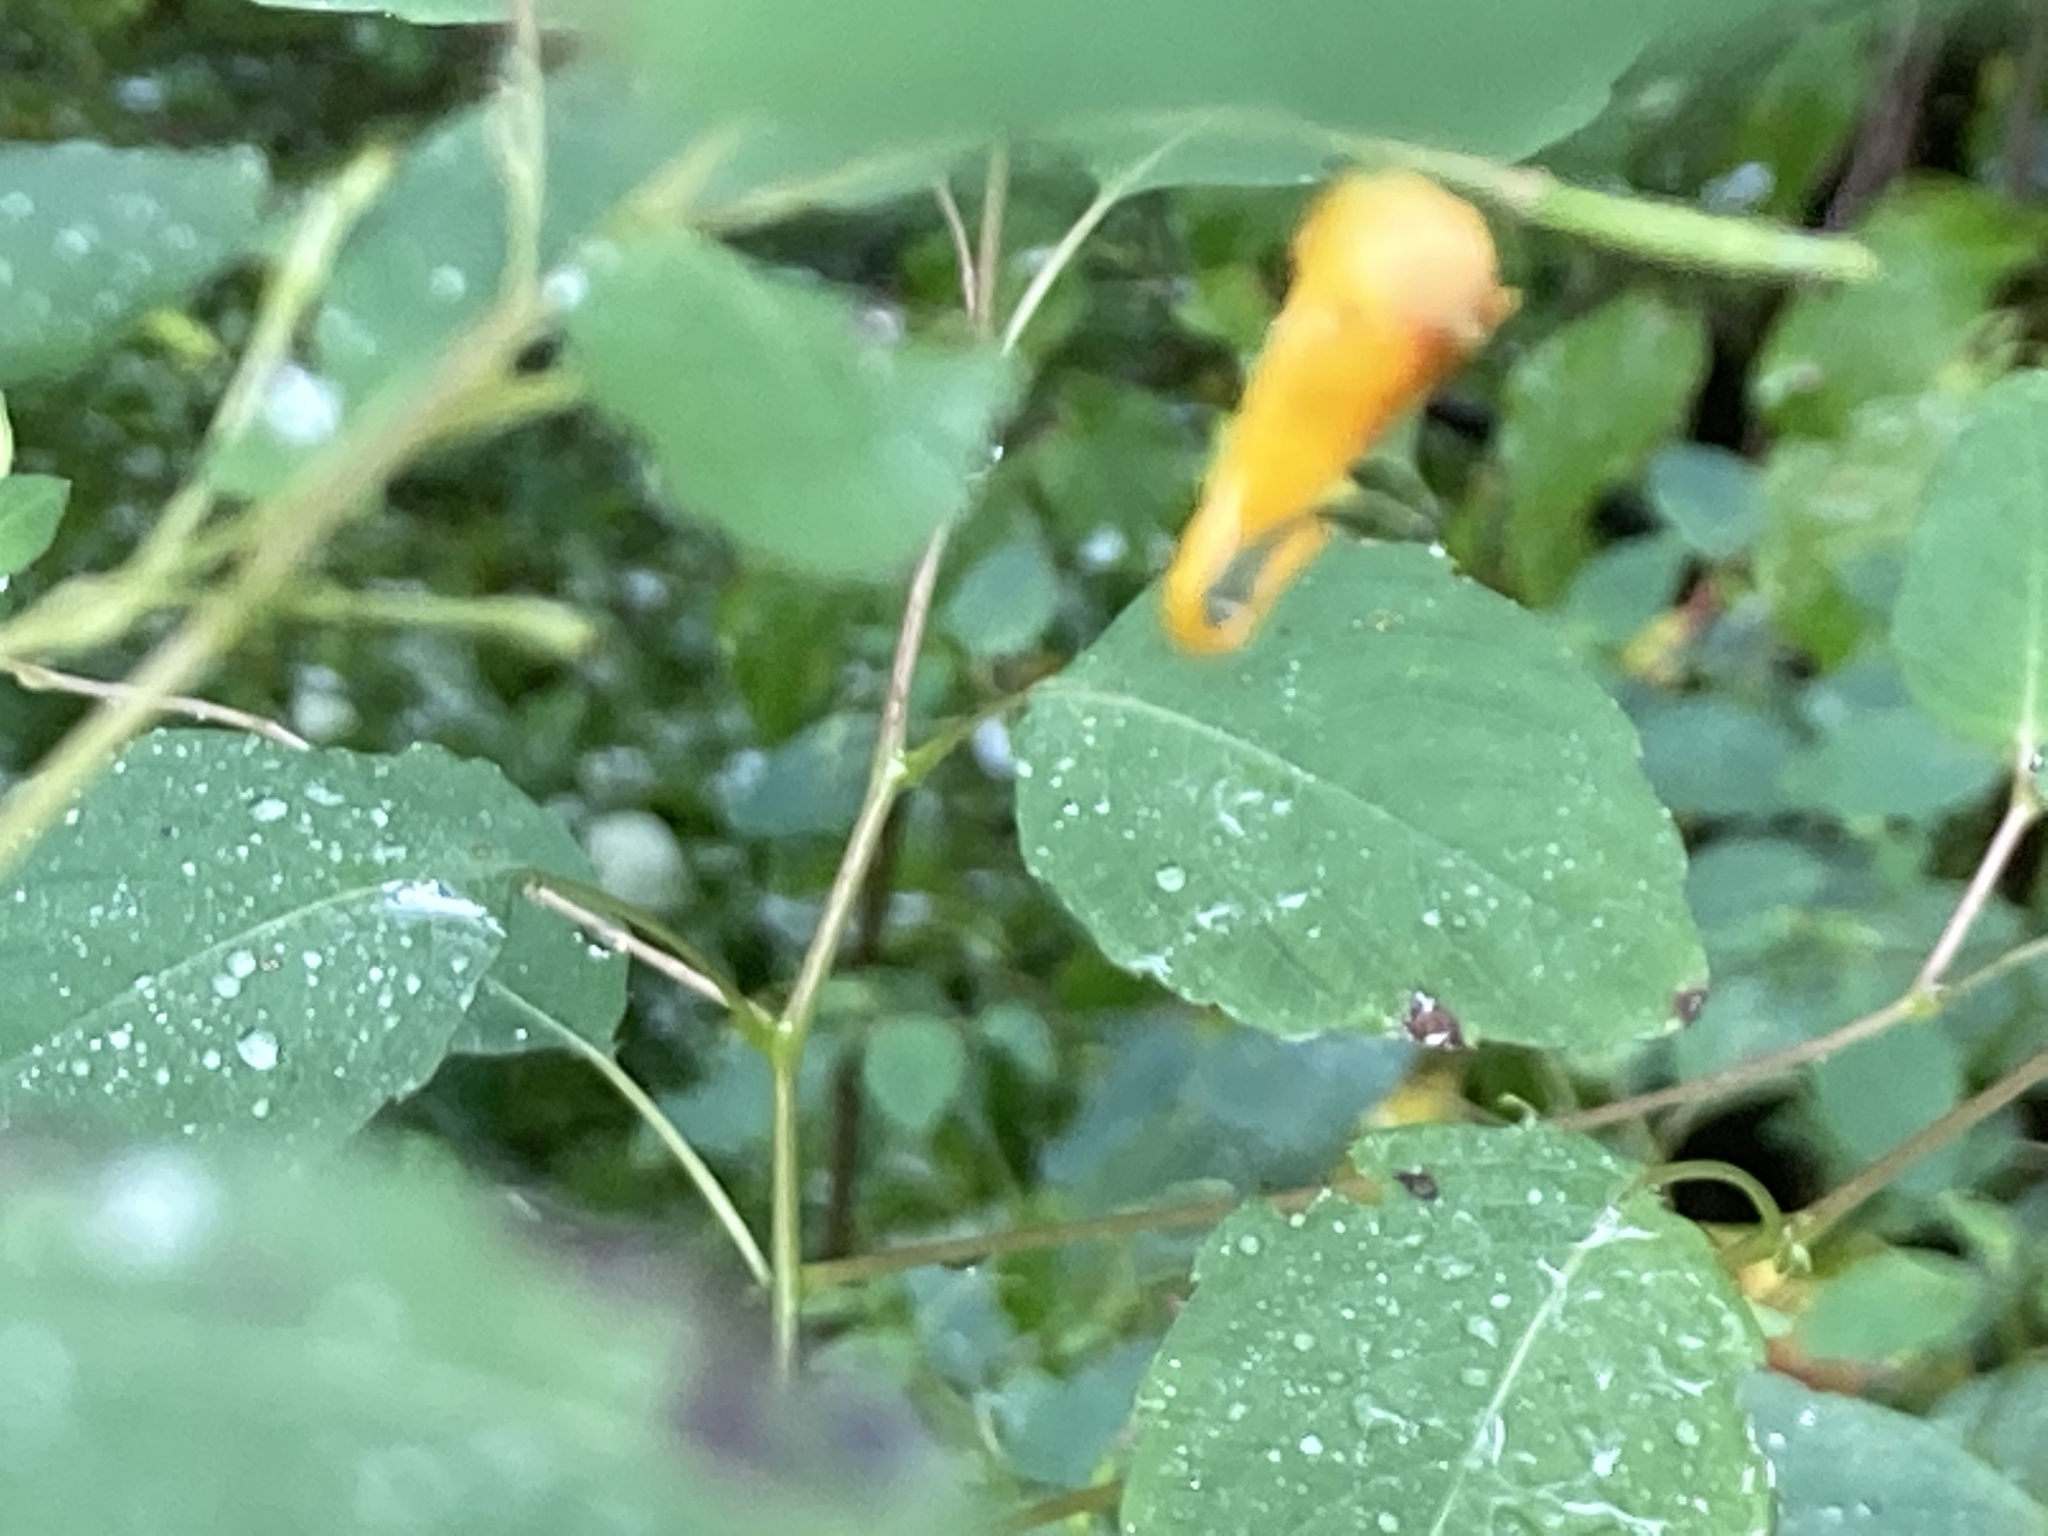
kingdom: Plantae
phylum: Tracheophyta
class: Magnoliopsida
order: Ericales
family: Balsaminaceae
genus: Impatiens
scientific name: Impatiens capensis
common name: Orange balsam
